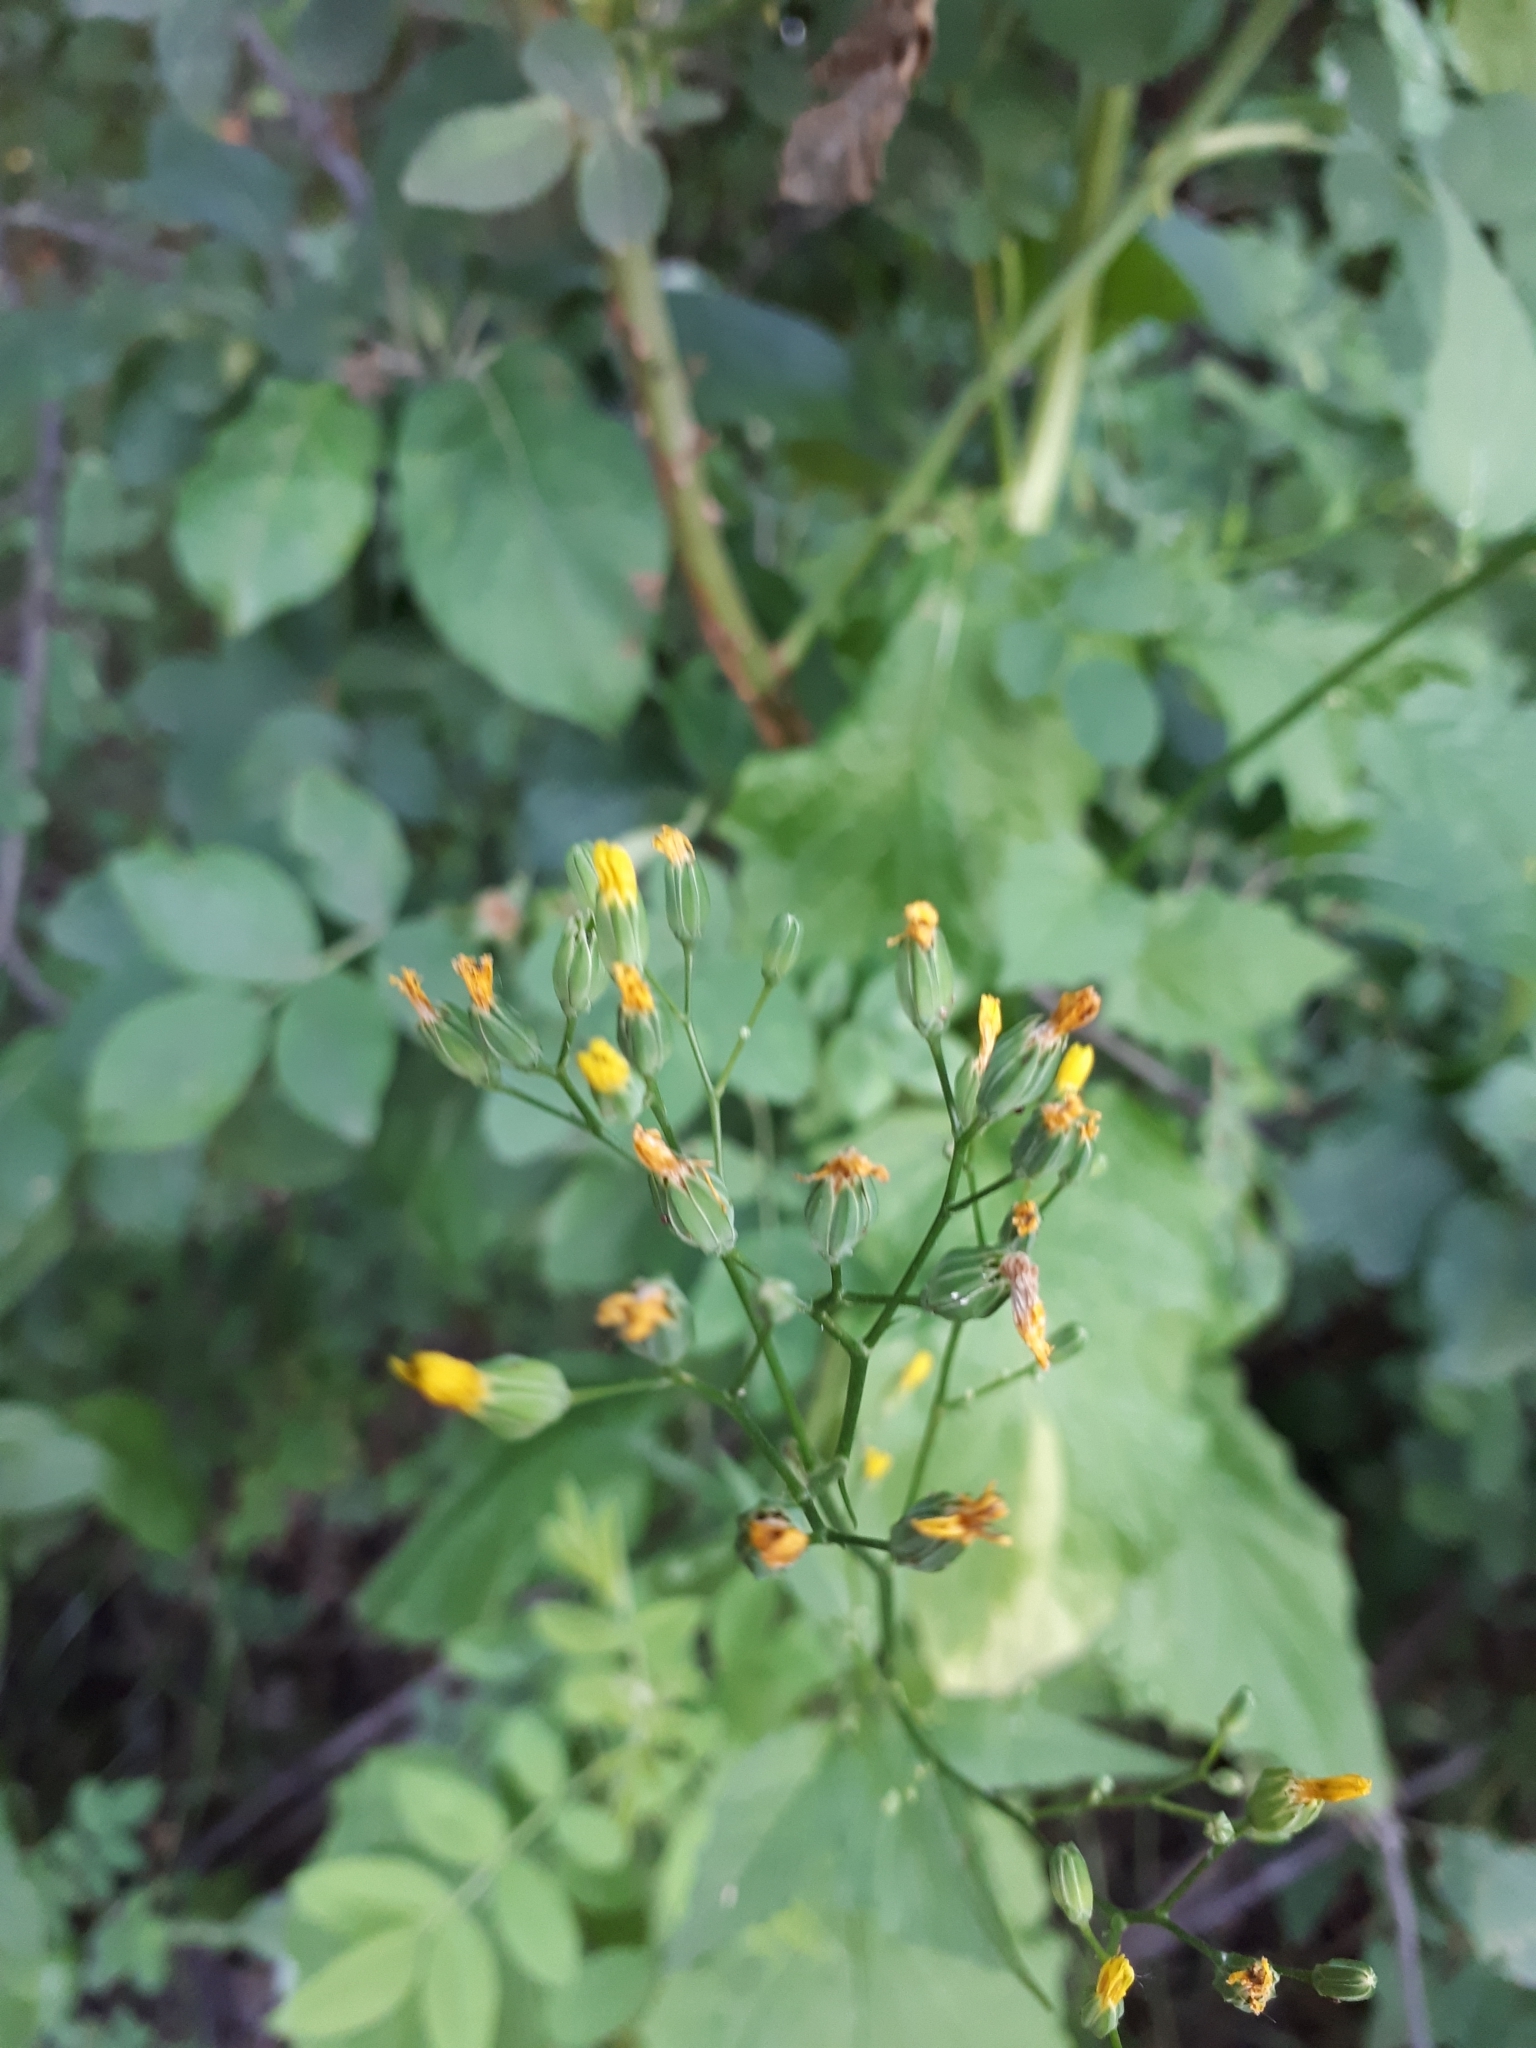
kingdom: Plantae
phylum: Tracheophyta
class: Magnoliopsida
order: Asterales
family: Asteraceae
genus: Lapsana
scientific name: Lapsana communis
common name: Nipplewort
